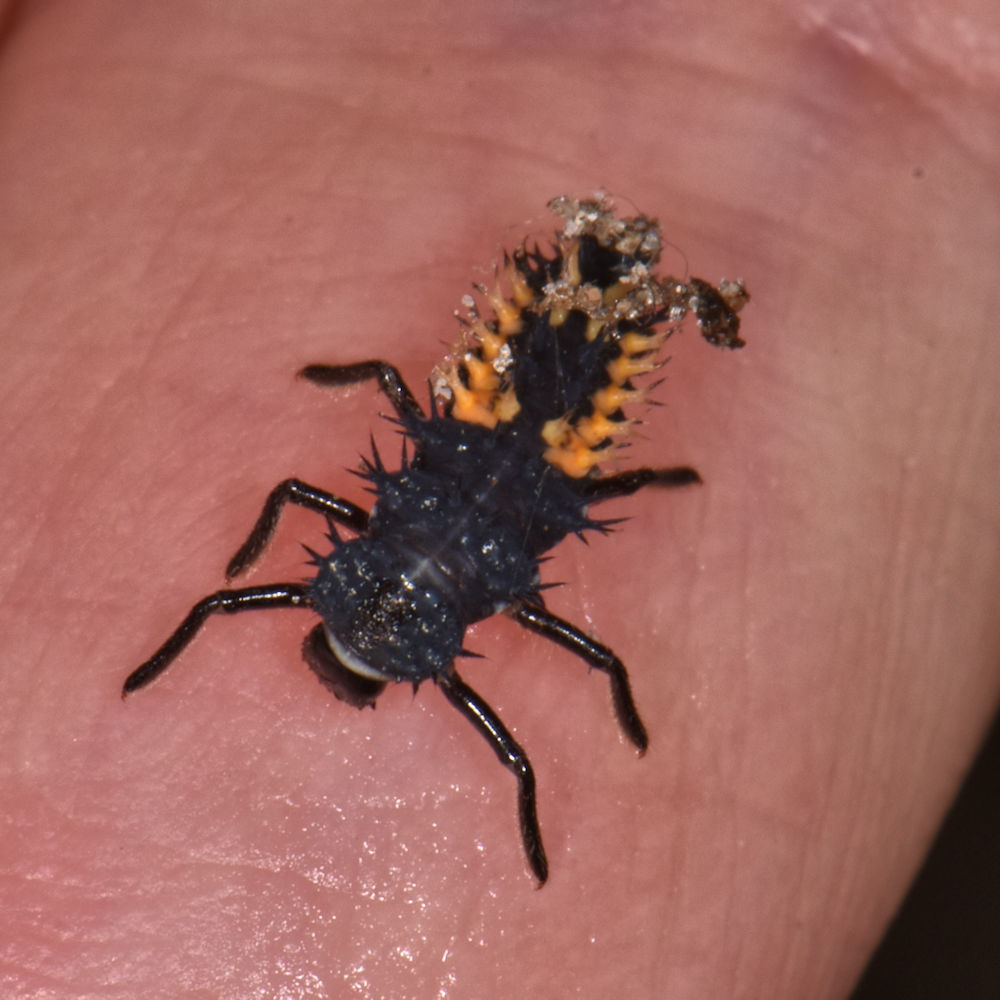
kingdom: Animalia
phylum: Arthropoda
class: Insecta
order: Coleoptera
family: Coccinellidae
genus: Harmonia
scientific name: Harmonia axyridis
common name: Harlequin ladybird
